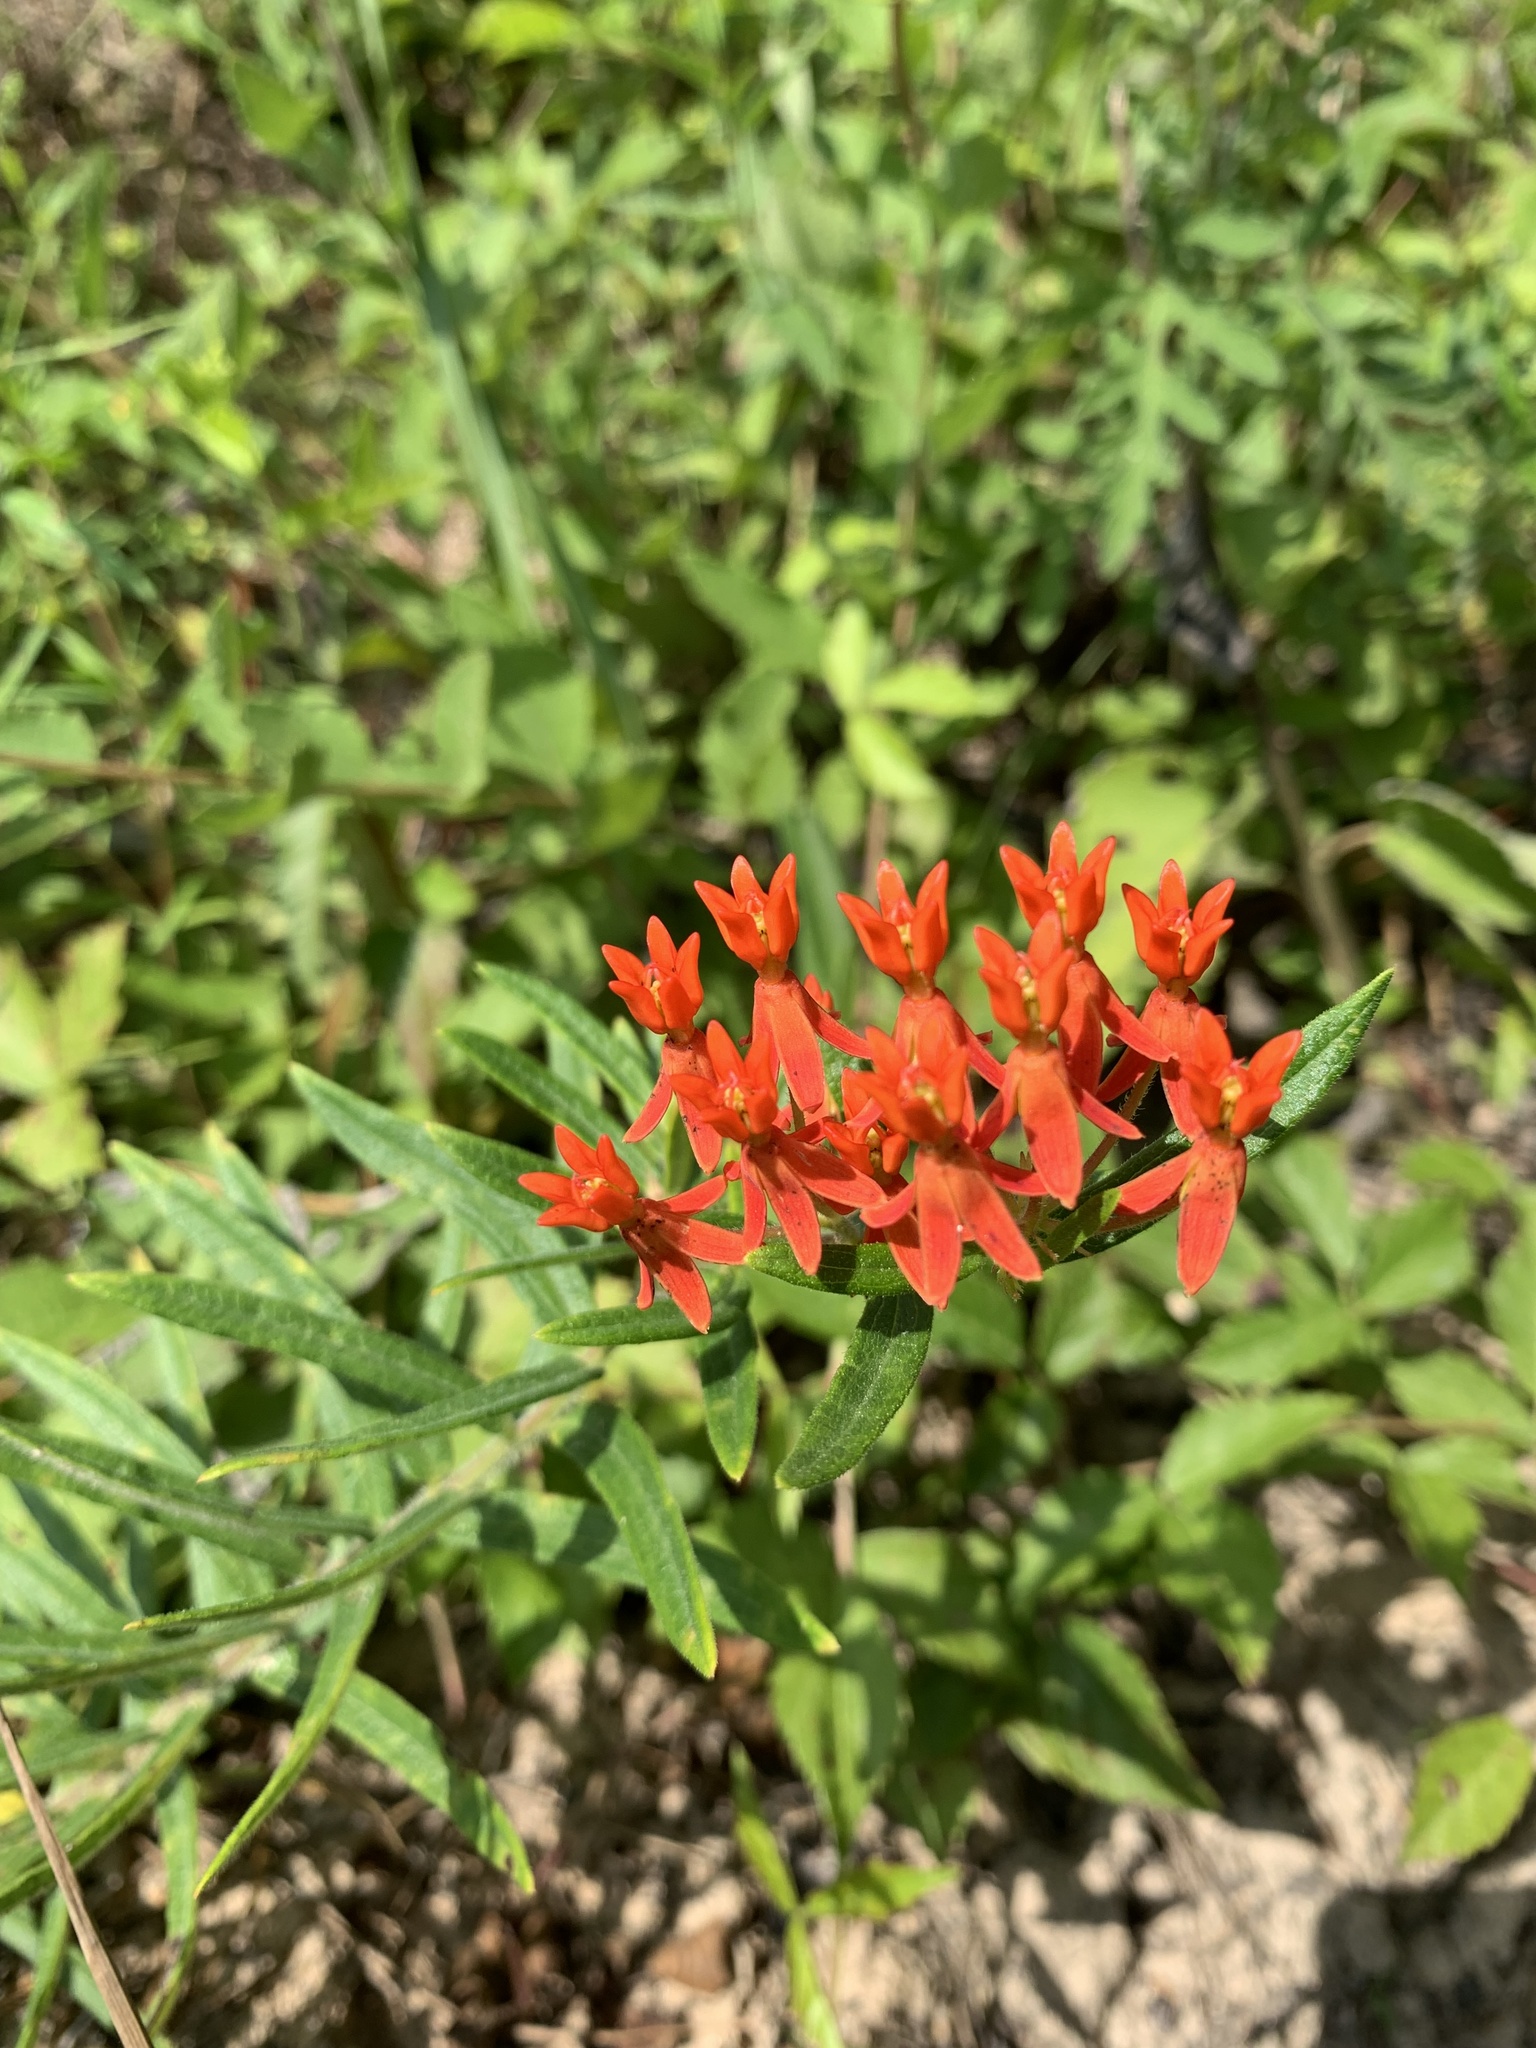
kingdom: Plantae
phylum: Tracheophyta
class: Magnoliopsida
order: Gentianales
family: Apocynaceae
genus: Asclepias
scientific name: Asclepias tuberosa
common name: Butterfly milkweed
